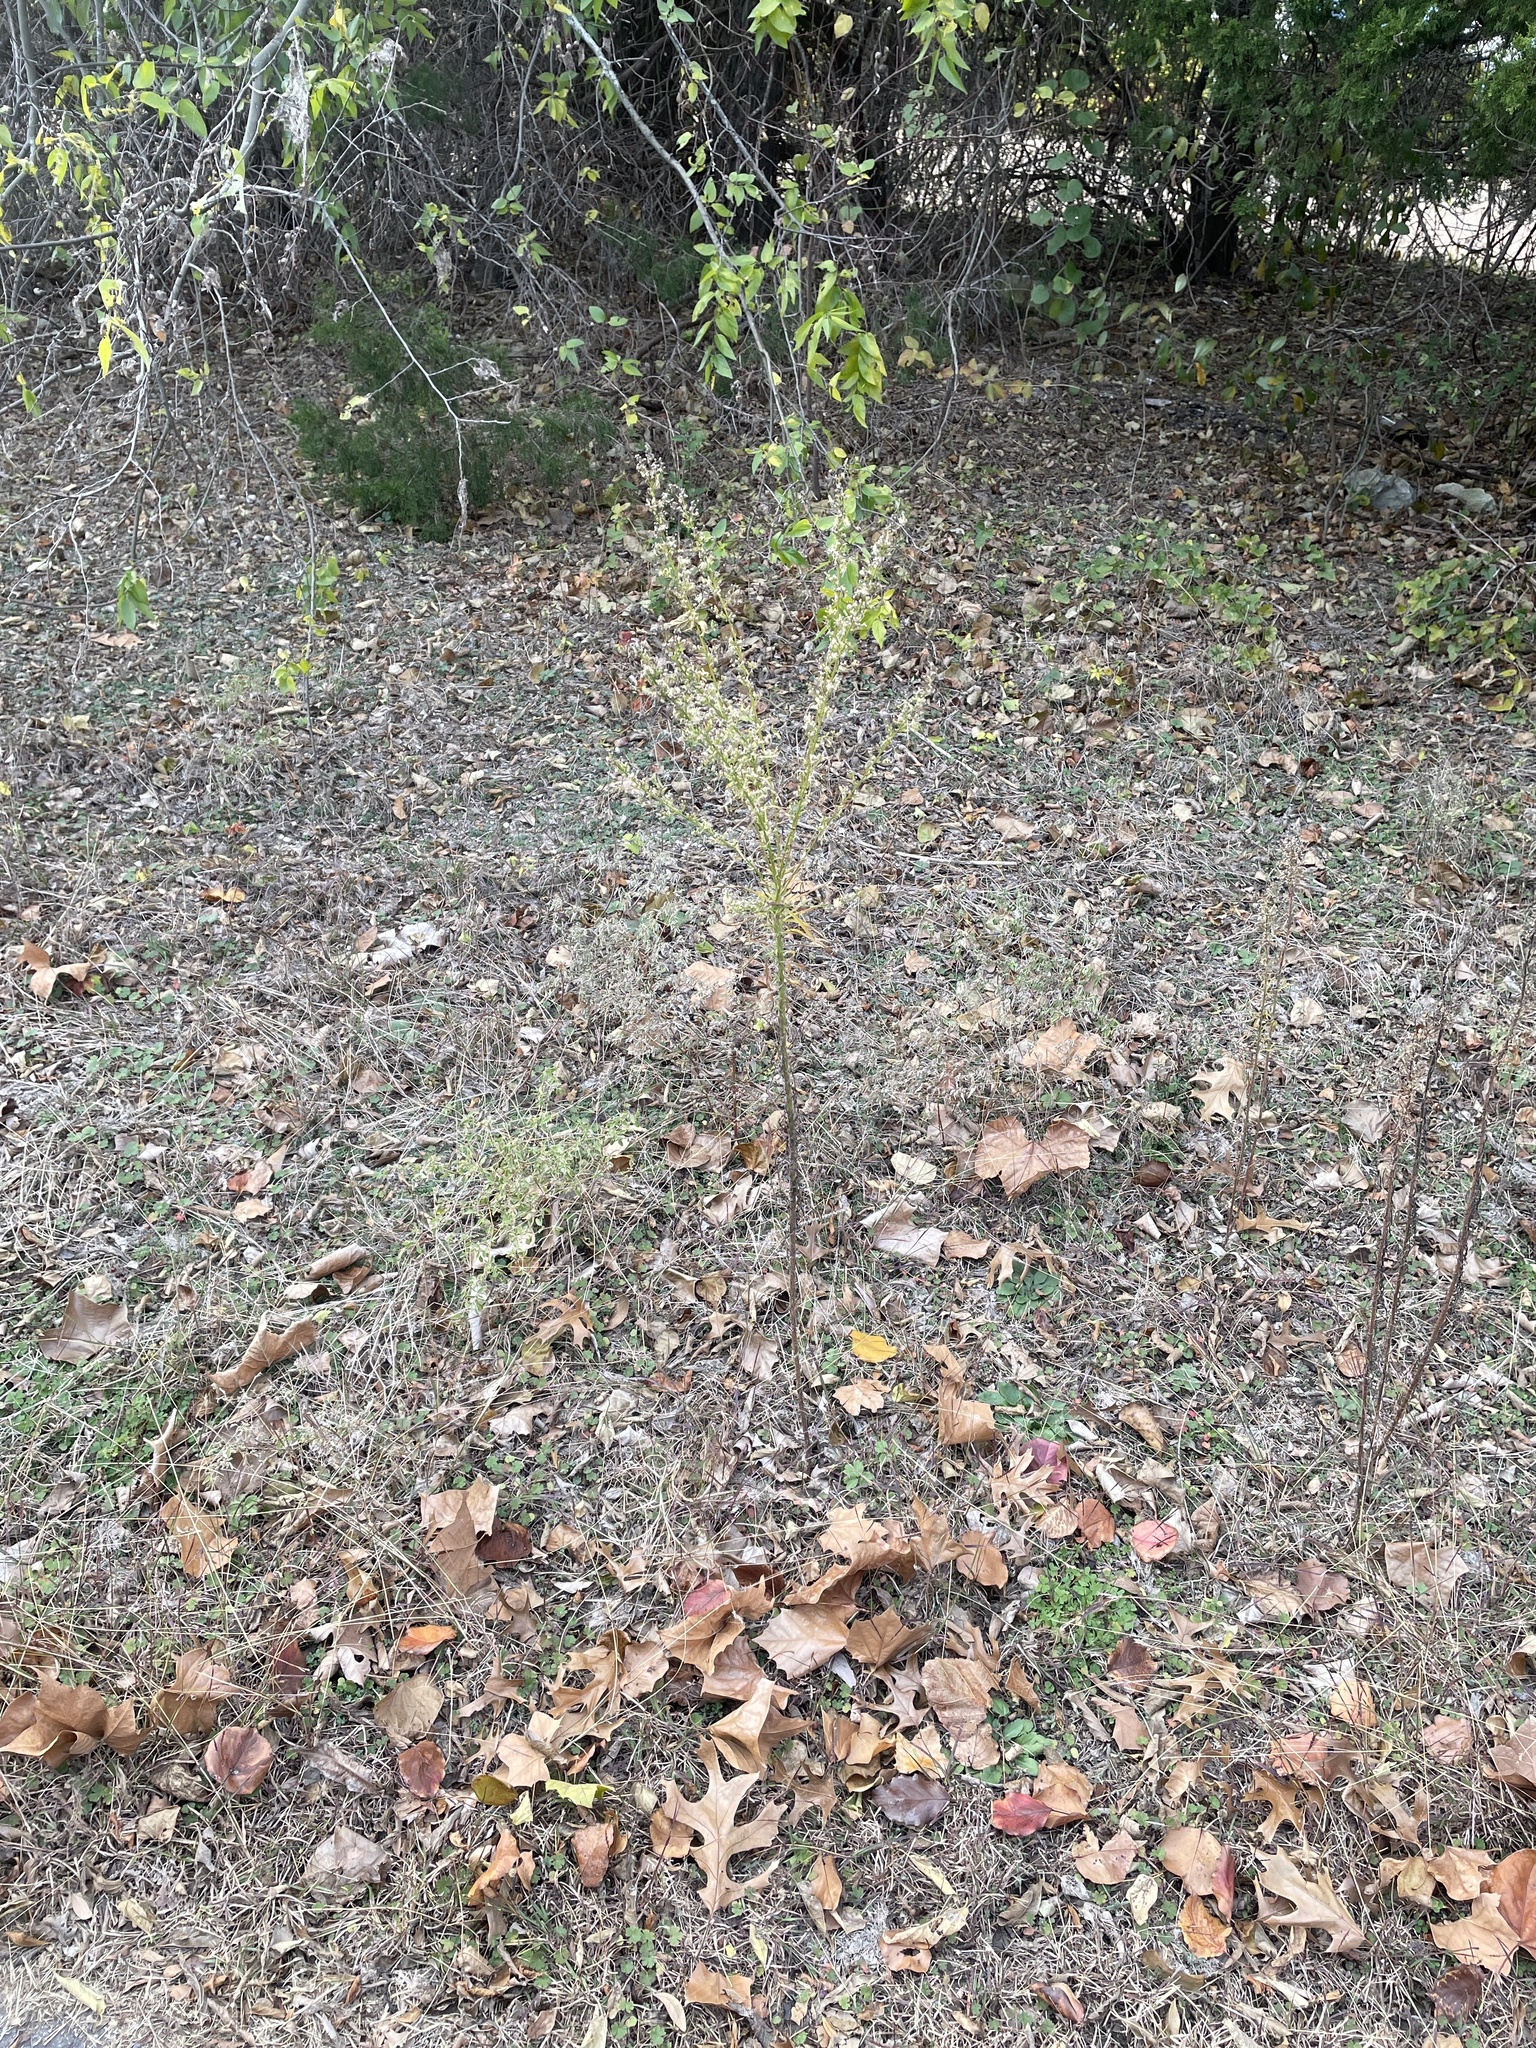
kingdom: Plantae
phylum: Tracheophyta
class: Magnoliopsida
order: Asterales
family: Asteraceae
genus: Erigeron
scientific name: Erigeron canadensis
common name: Canadian fleabane
